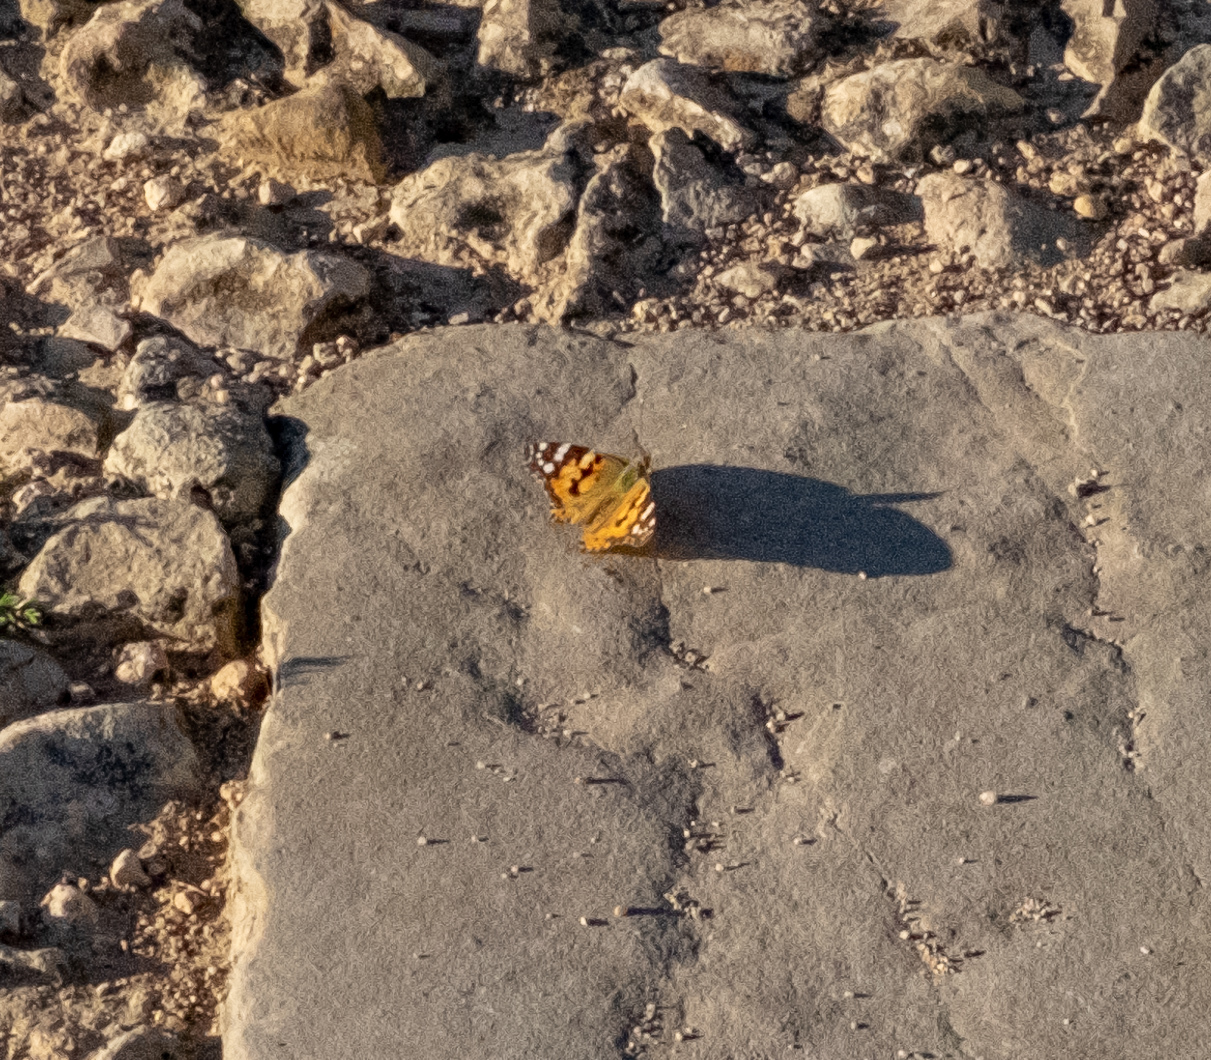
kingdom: Animalia
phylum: Arthropoda
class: Insecta
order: Lepidoptera
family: Nymphalidae
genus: Vanessa
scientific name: Vanessa cardui
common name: Painted lady
